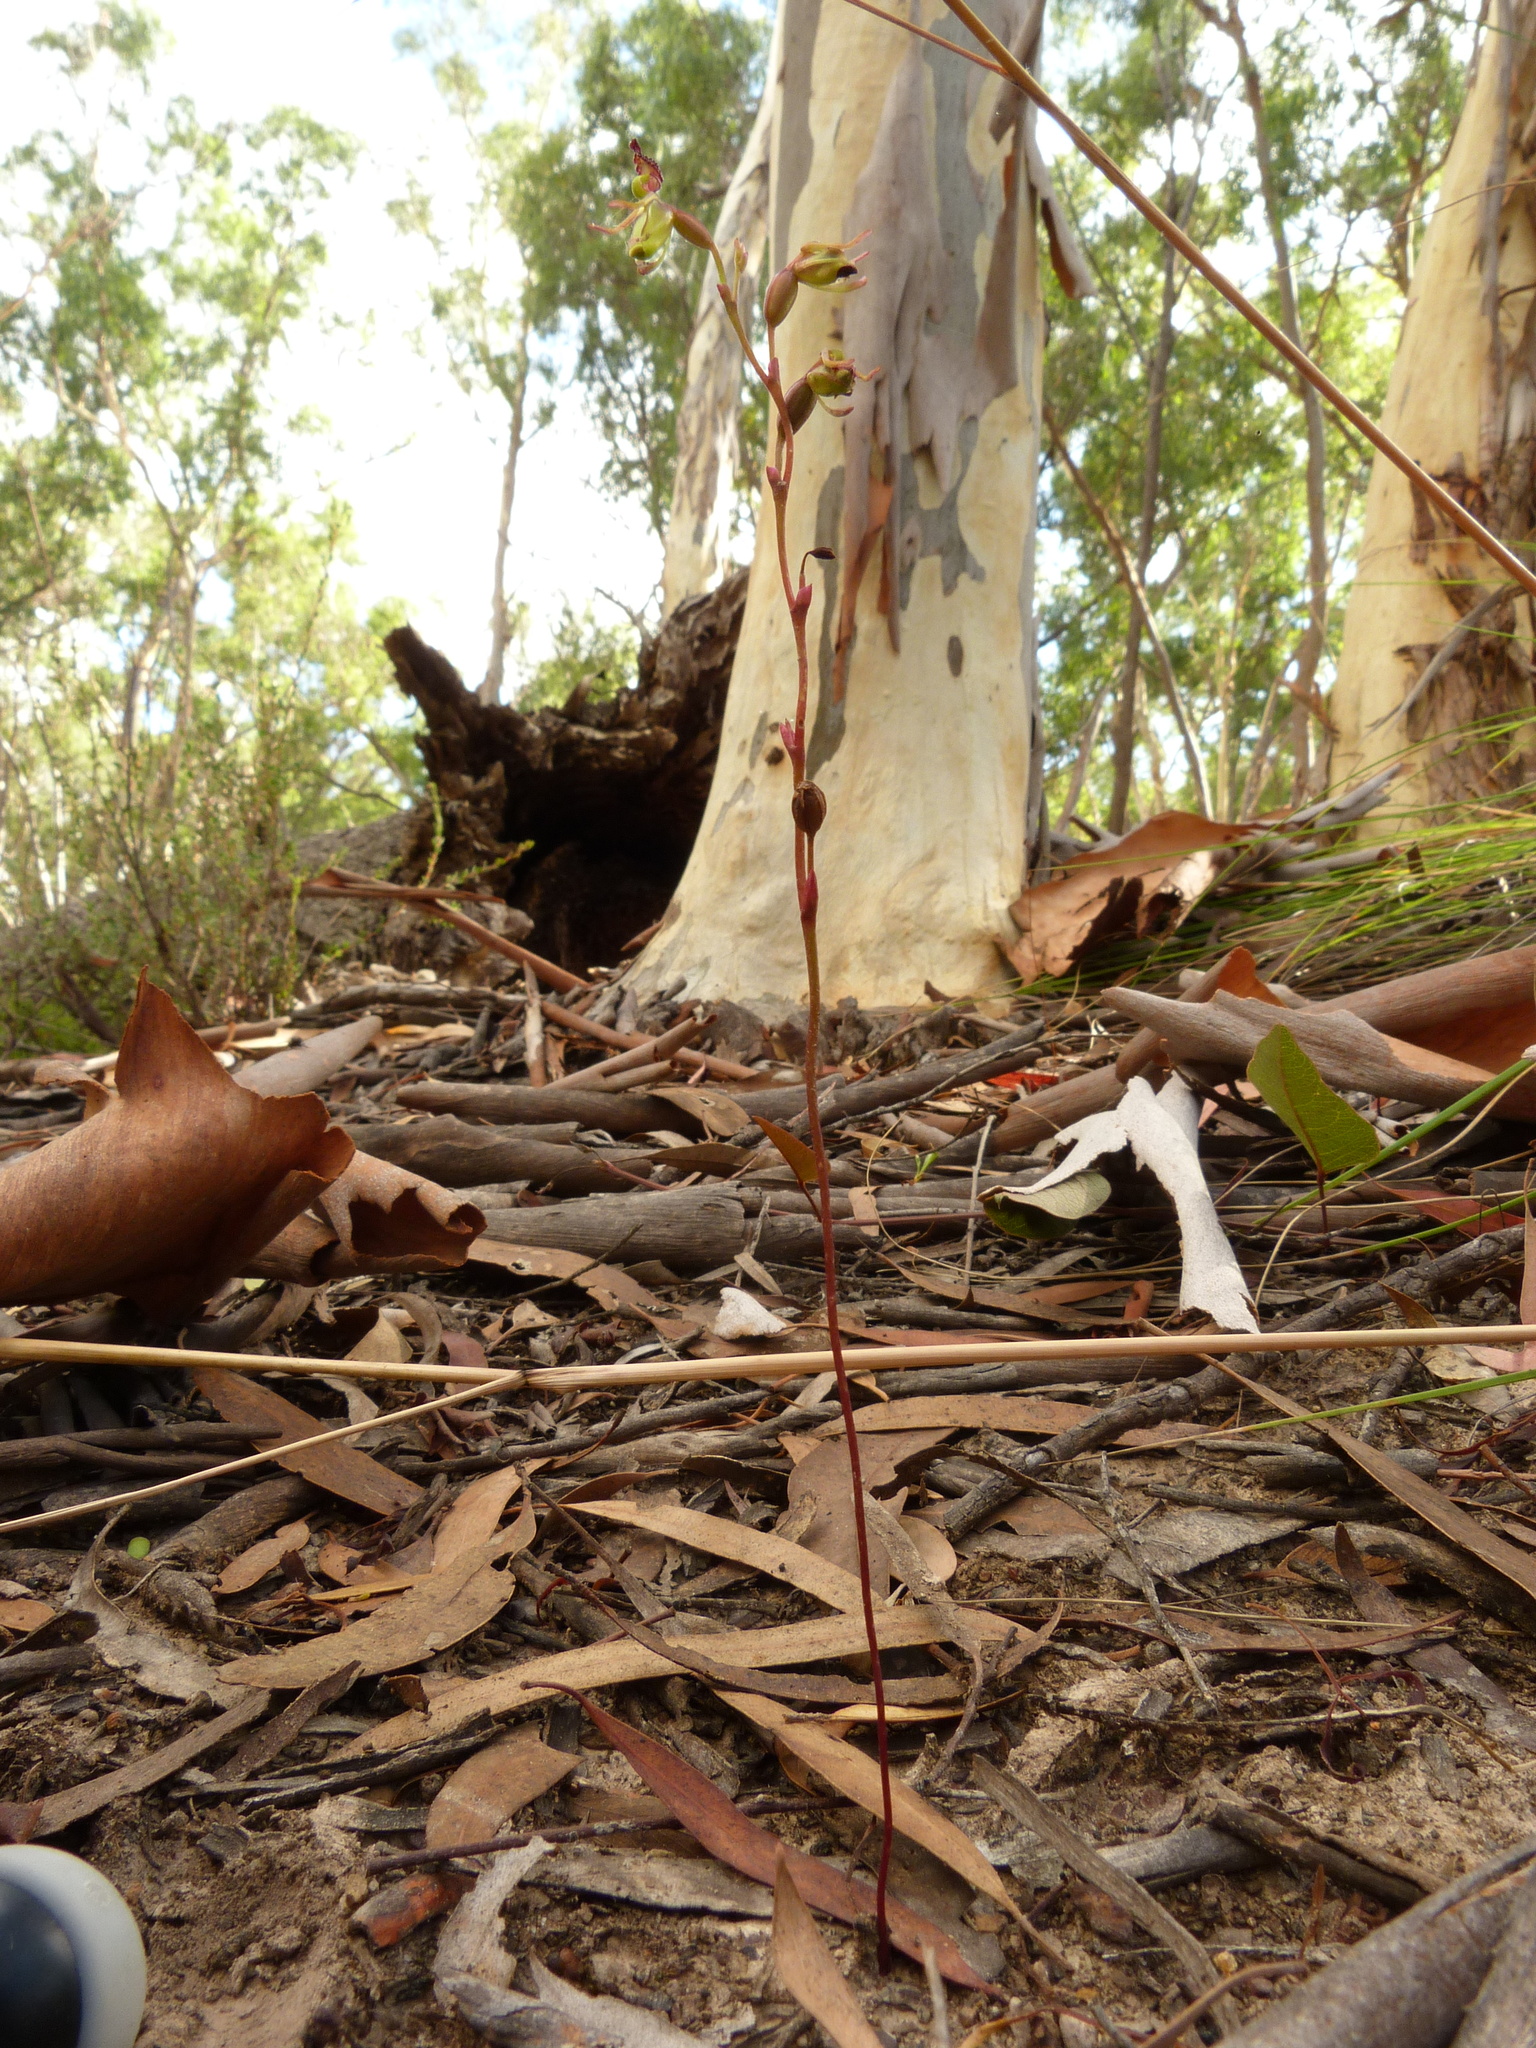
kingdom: Plantae
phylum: Tracheophyta
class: Liliopsida
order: Asparagales
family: Orchidaceae
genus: Caleana
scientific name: Caleana minor
